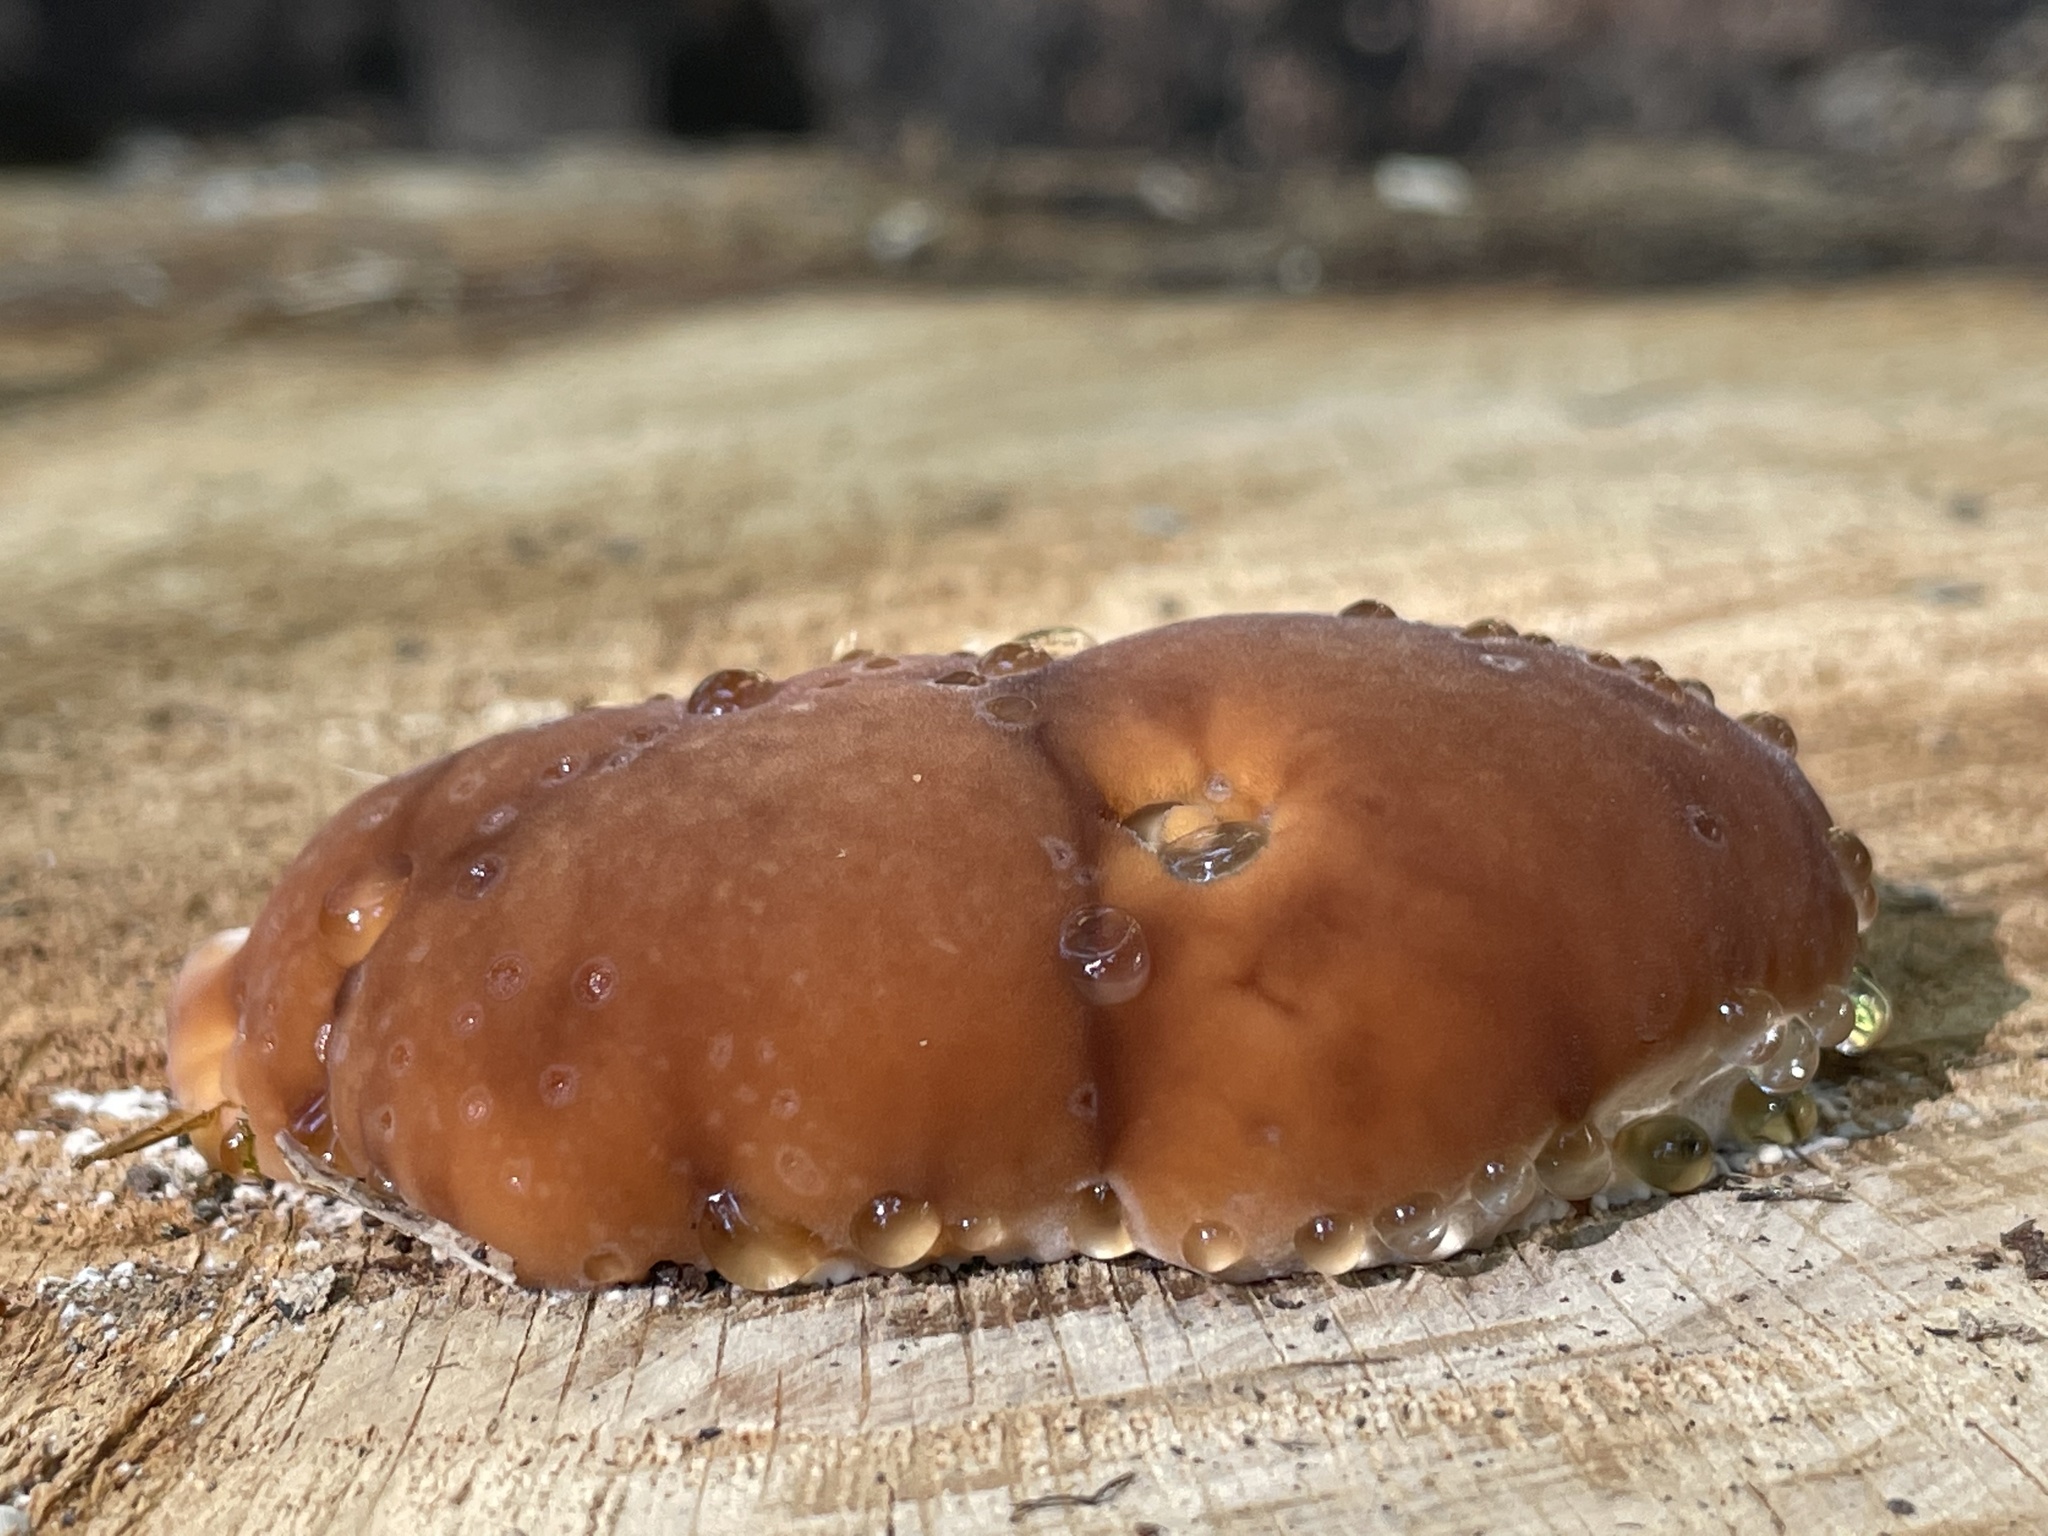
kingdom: Fungi
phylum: Basidiomycota
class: Agaricomycetes
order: Polyporales
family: Fomitopsidaceae
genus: Niveoporofomes
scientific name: Niveoporofomes spraguei
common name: Green cheese polypore
